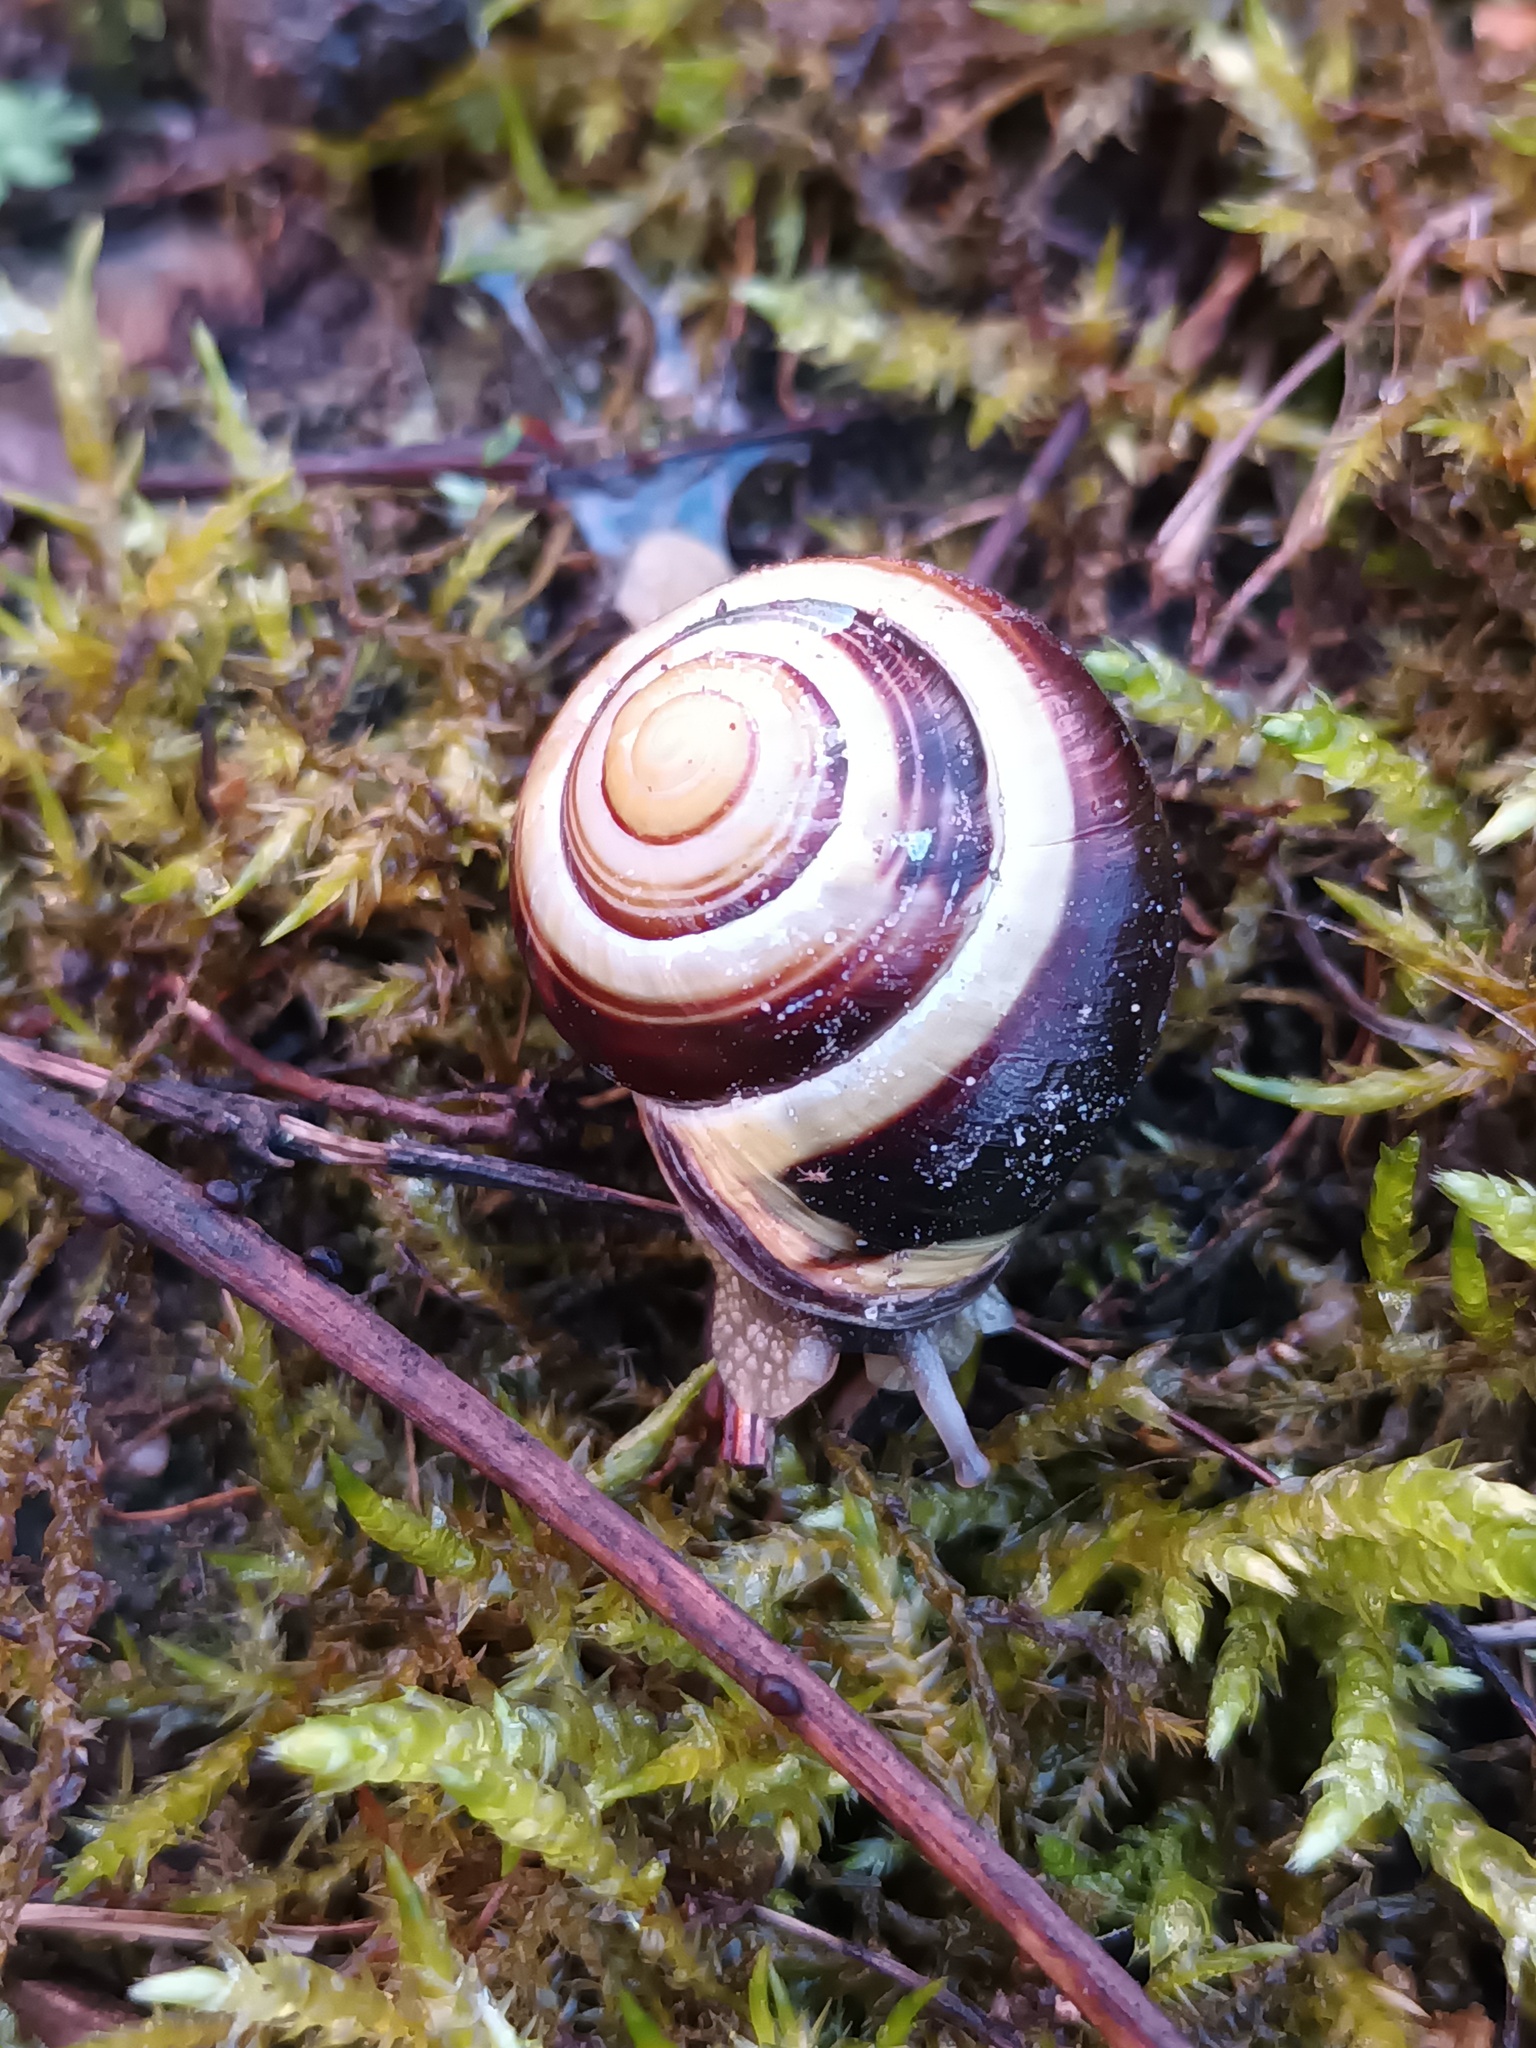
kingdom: Animalia
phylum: Mollusca
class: Gastropoda
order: Stylommatophora
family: Helicidae
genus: Cepaea
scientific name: Cepaea nemoralis
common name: Grovesnail
